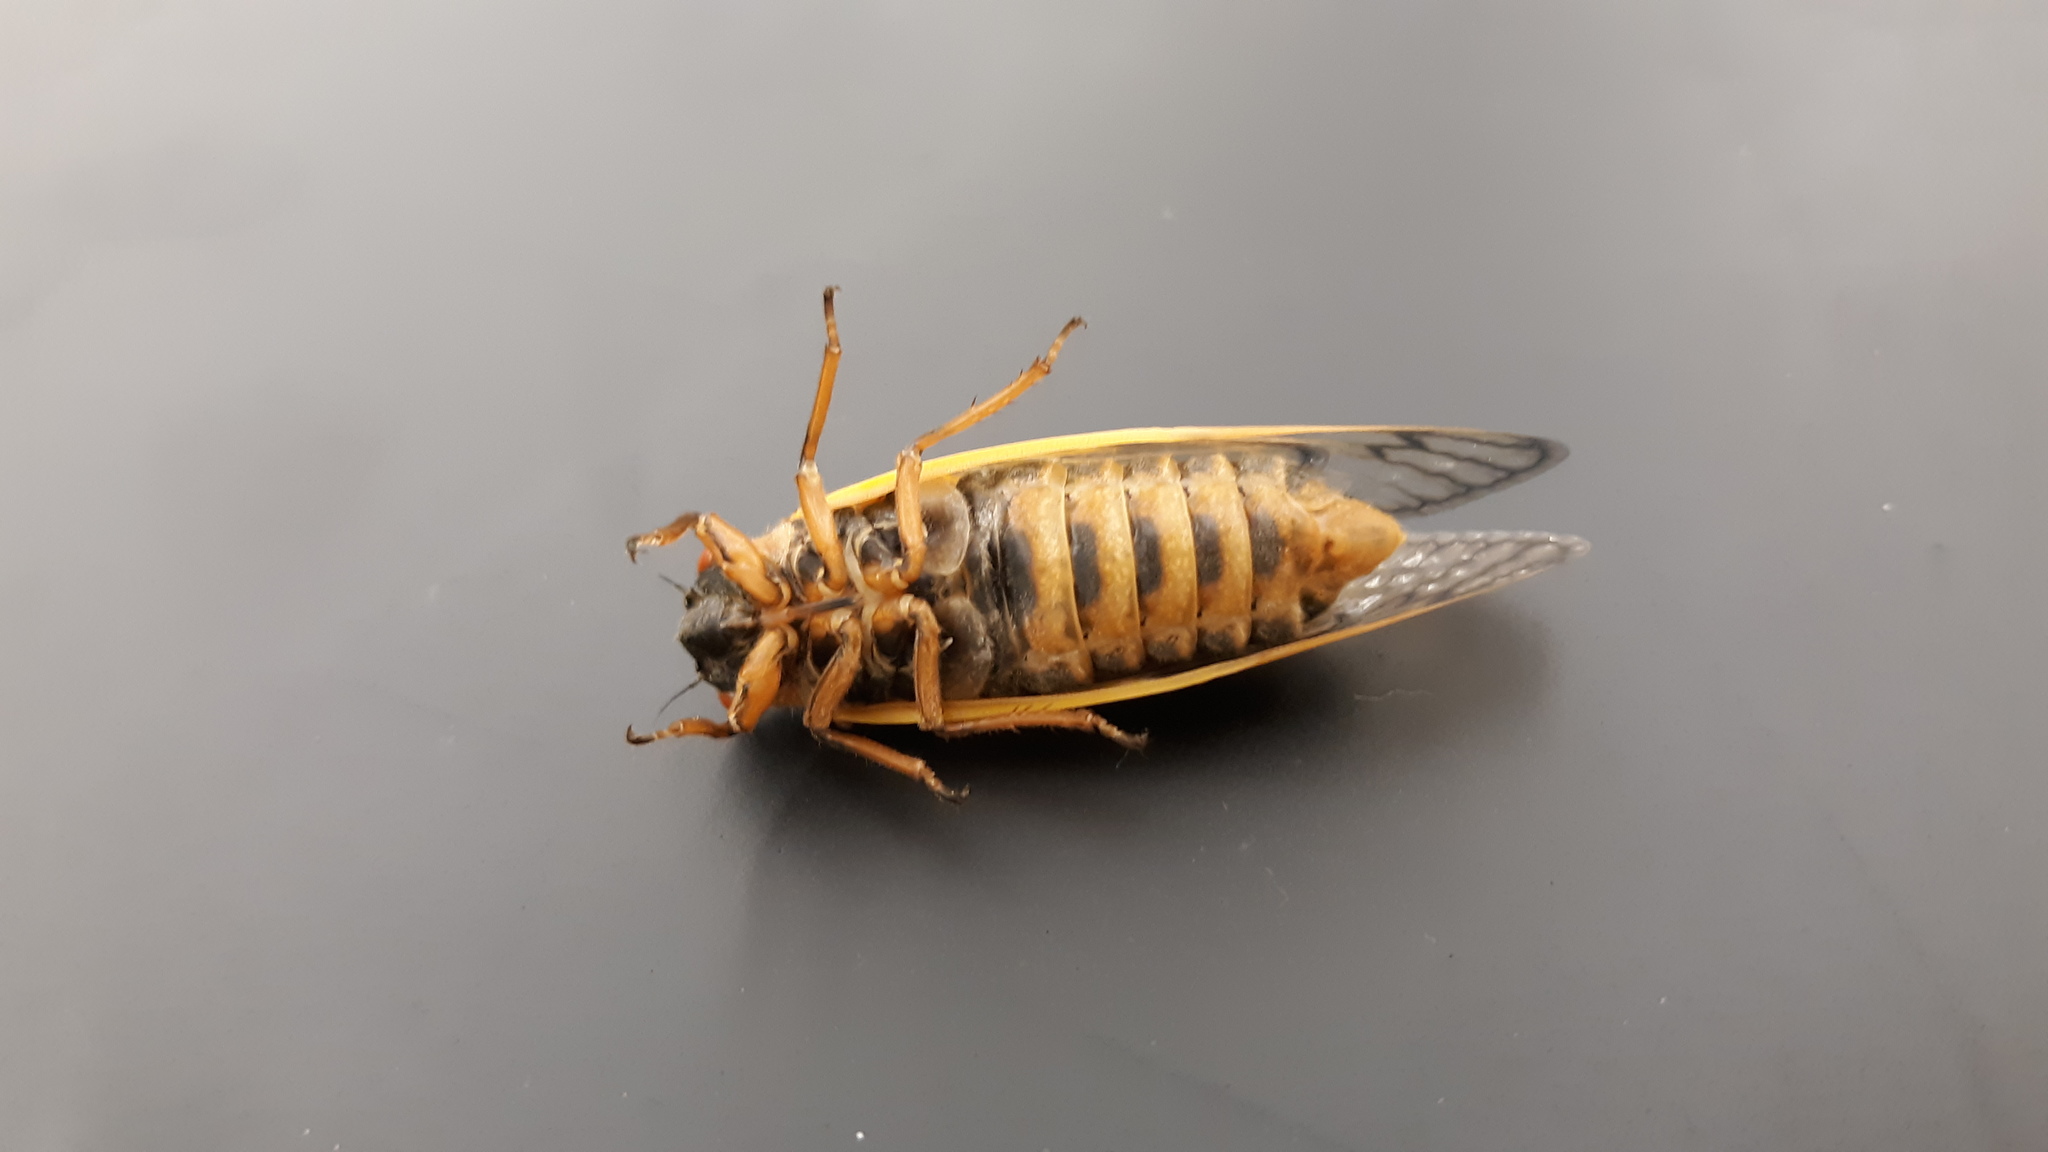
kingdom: Animalia
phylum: Arthropoda
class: Insecta
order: Hemiptera
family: Cicadidae
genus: Magicicada
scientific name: Magicicada septendecim
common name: Periodical cicada
